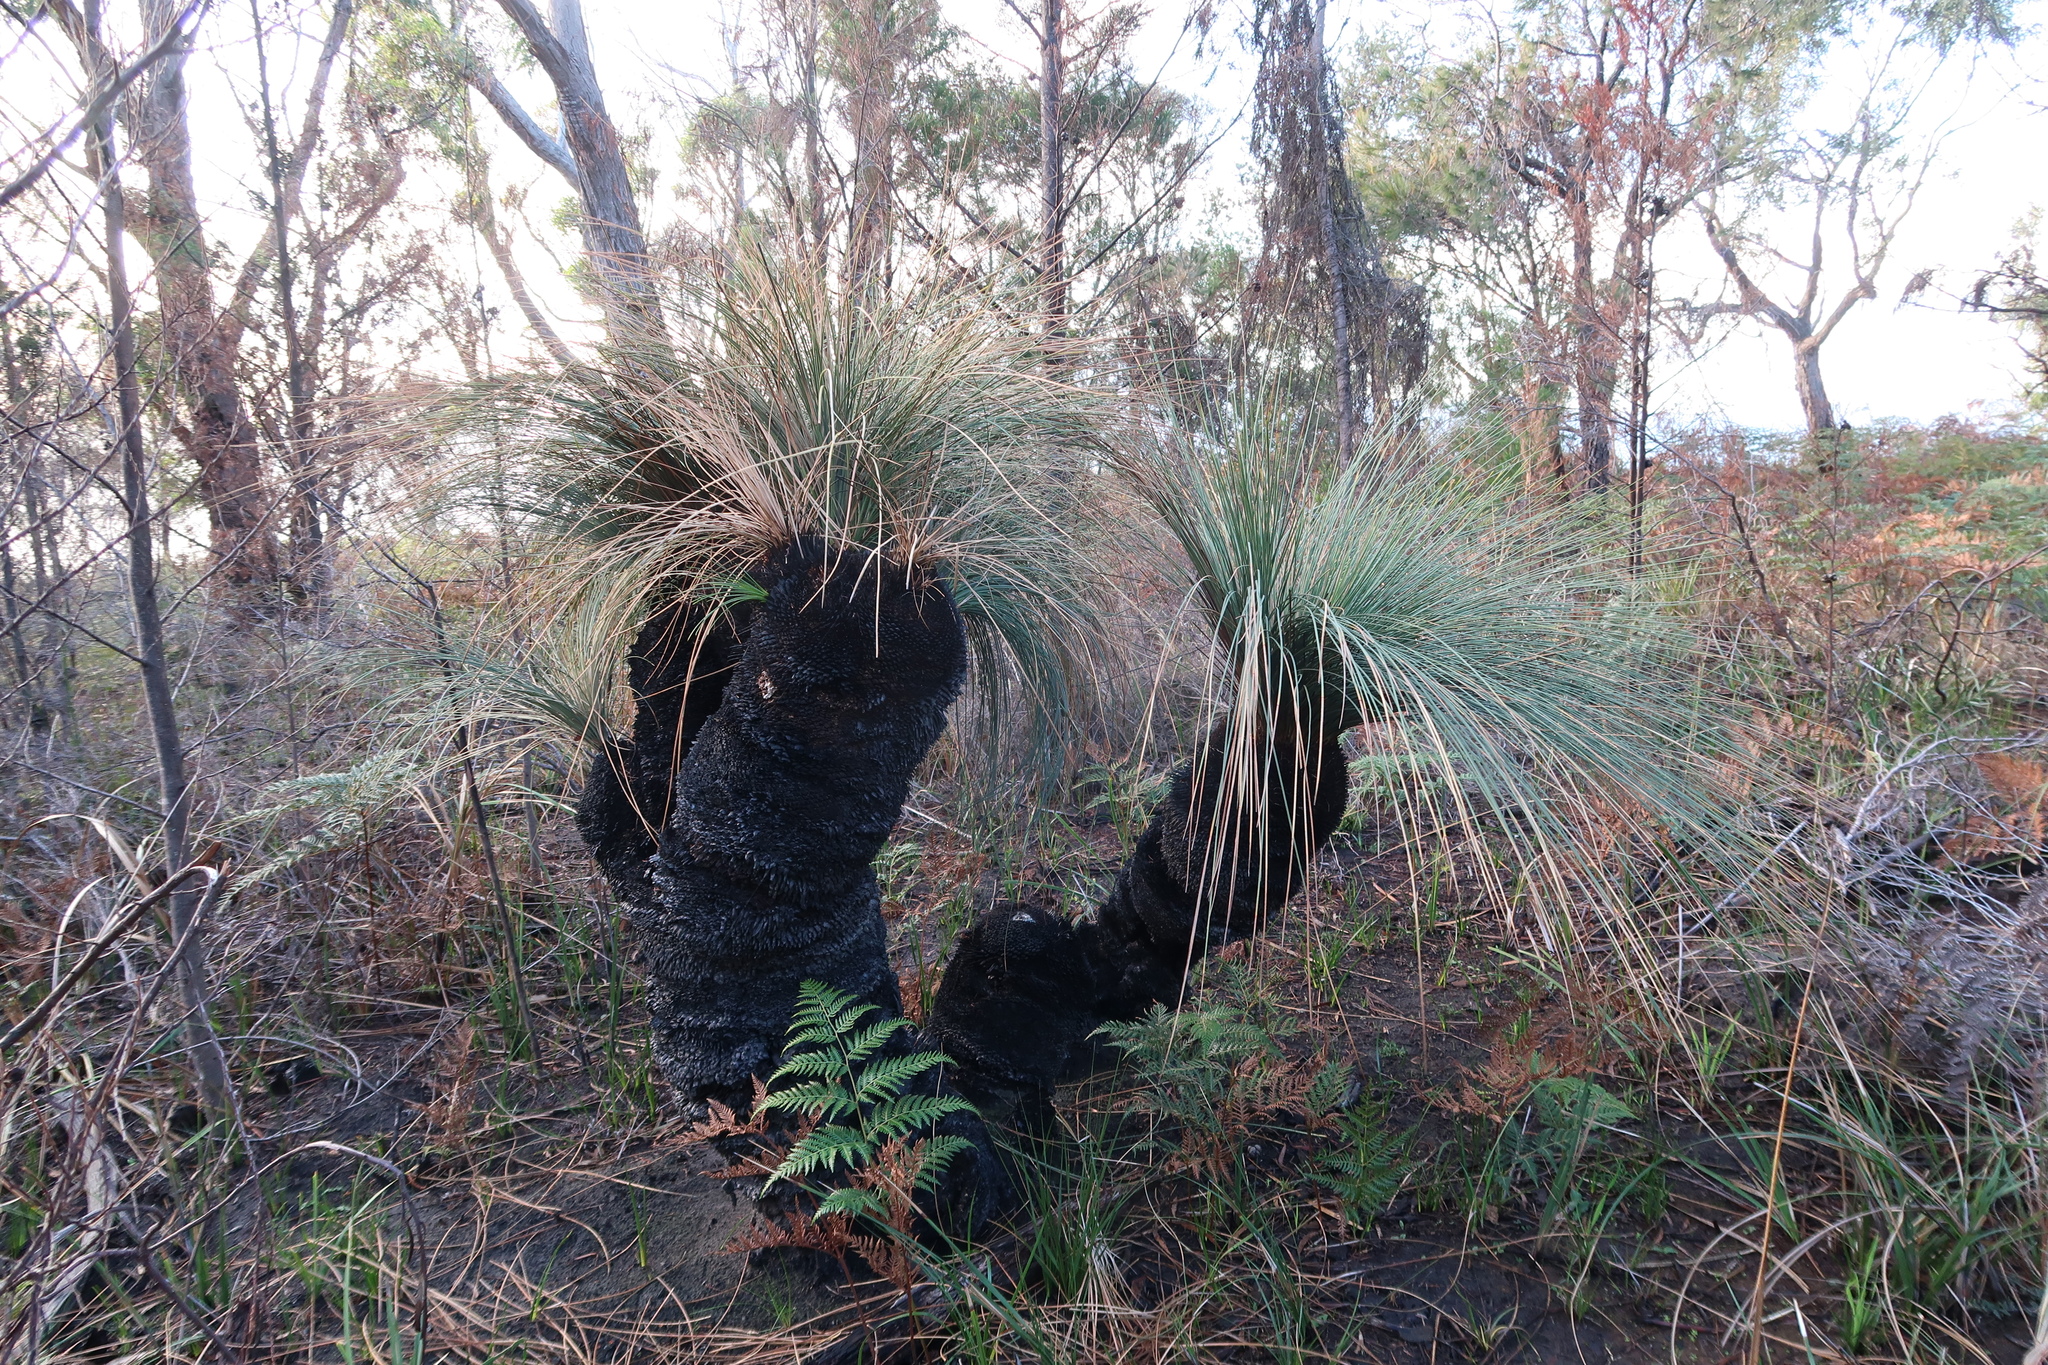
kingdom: Plantae
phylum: Tracheophyta
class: Liliopsida
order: Asparagales
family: Asphodelaceae
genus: Xanthorrhoea
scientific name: Xanthorrhoea australis
